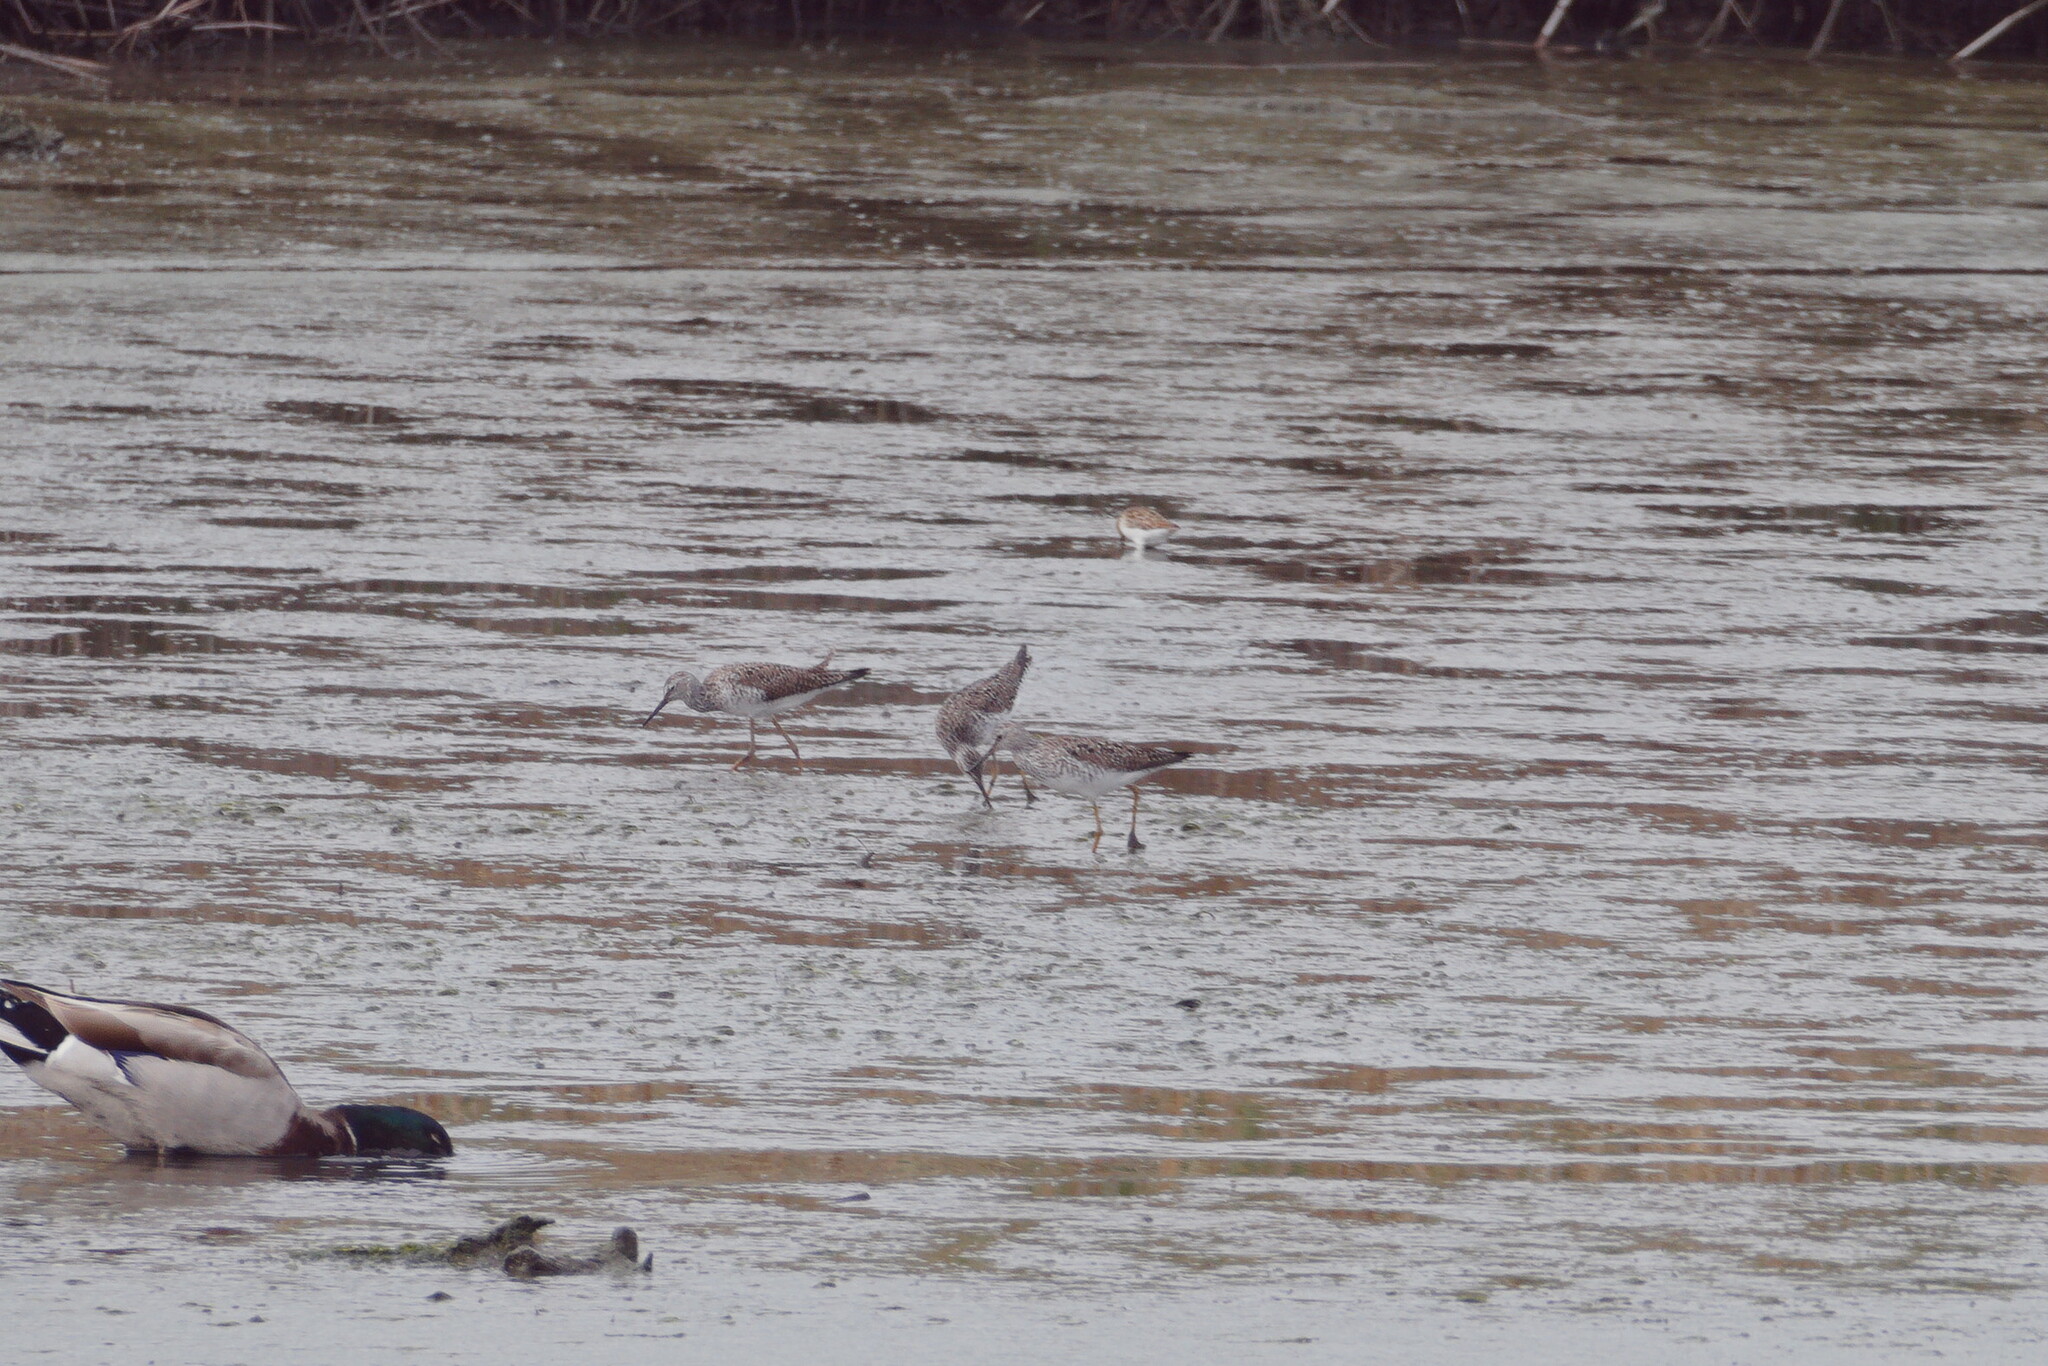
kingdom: Animalia
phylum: Chordata
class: Aves
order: Charadriiformes
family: Scolopacidae
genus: Tringa
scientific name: Tringa melanoleuca
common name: Greater yellowlegs
